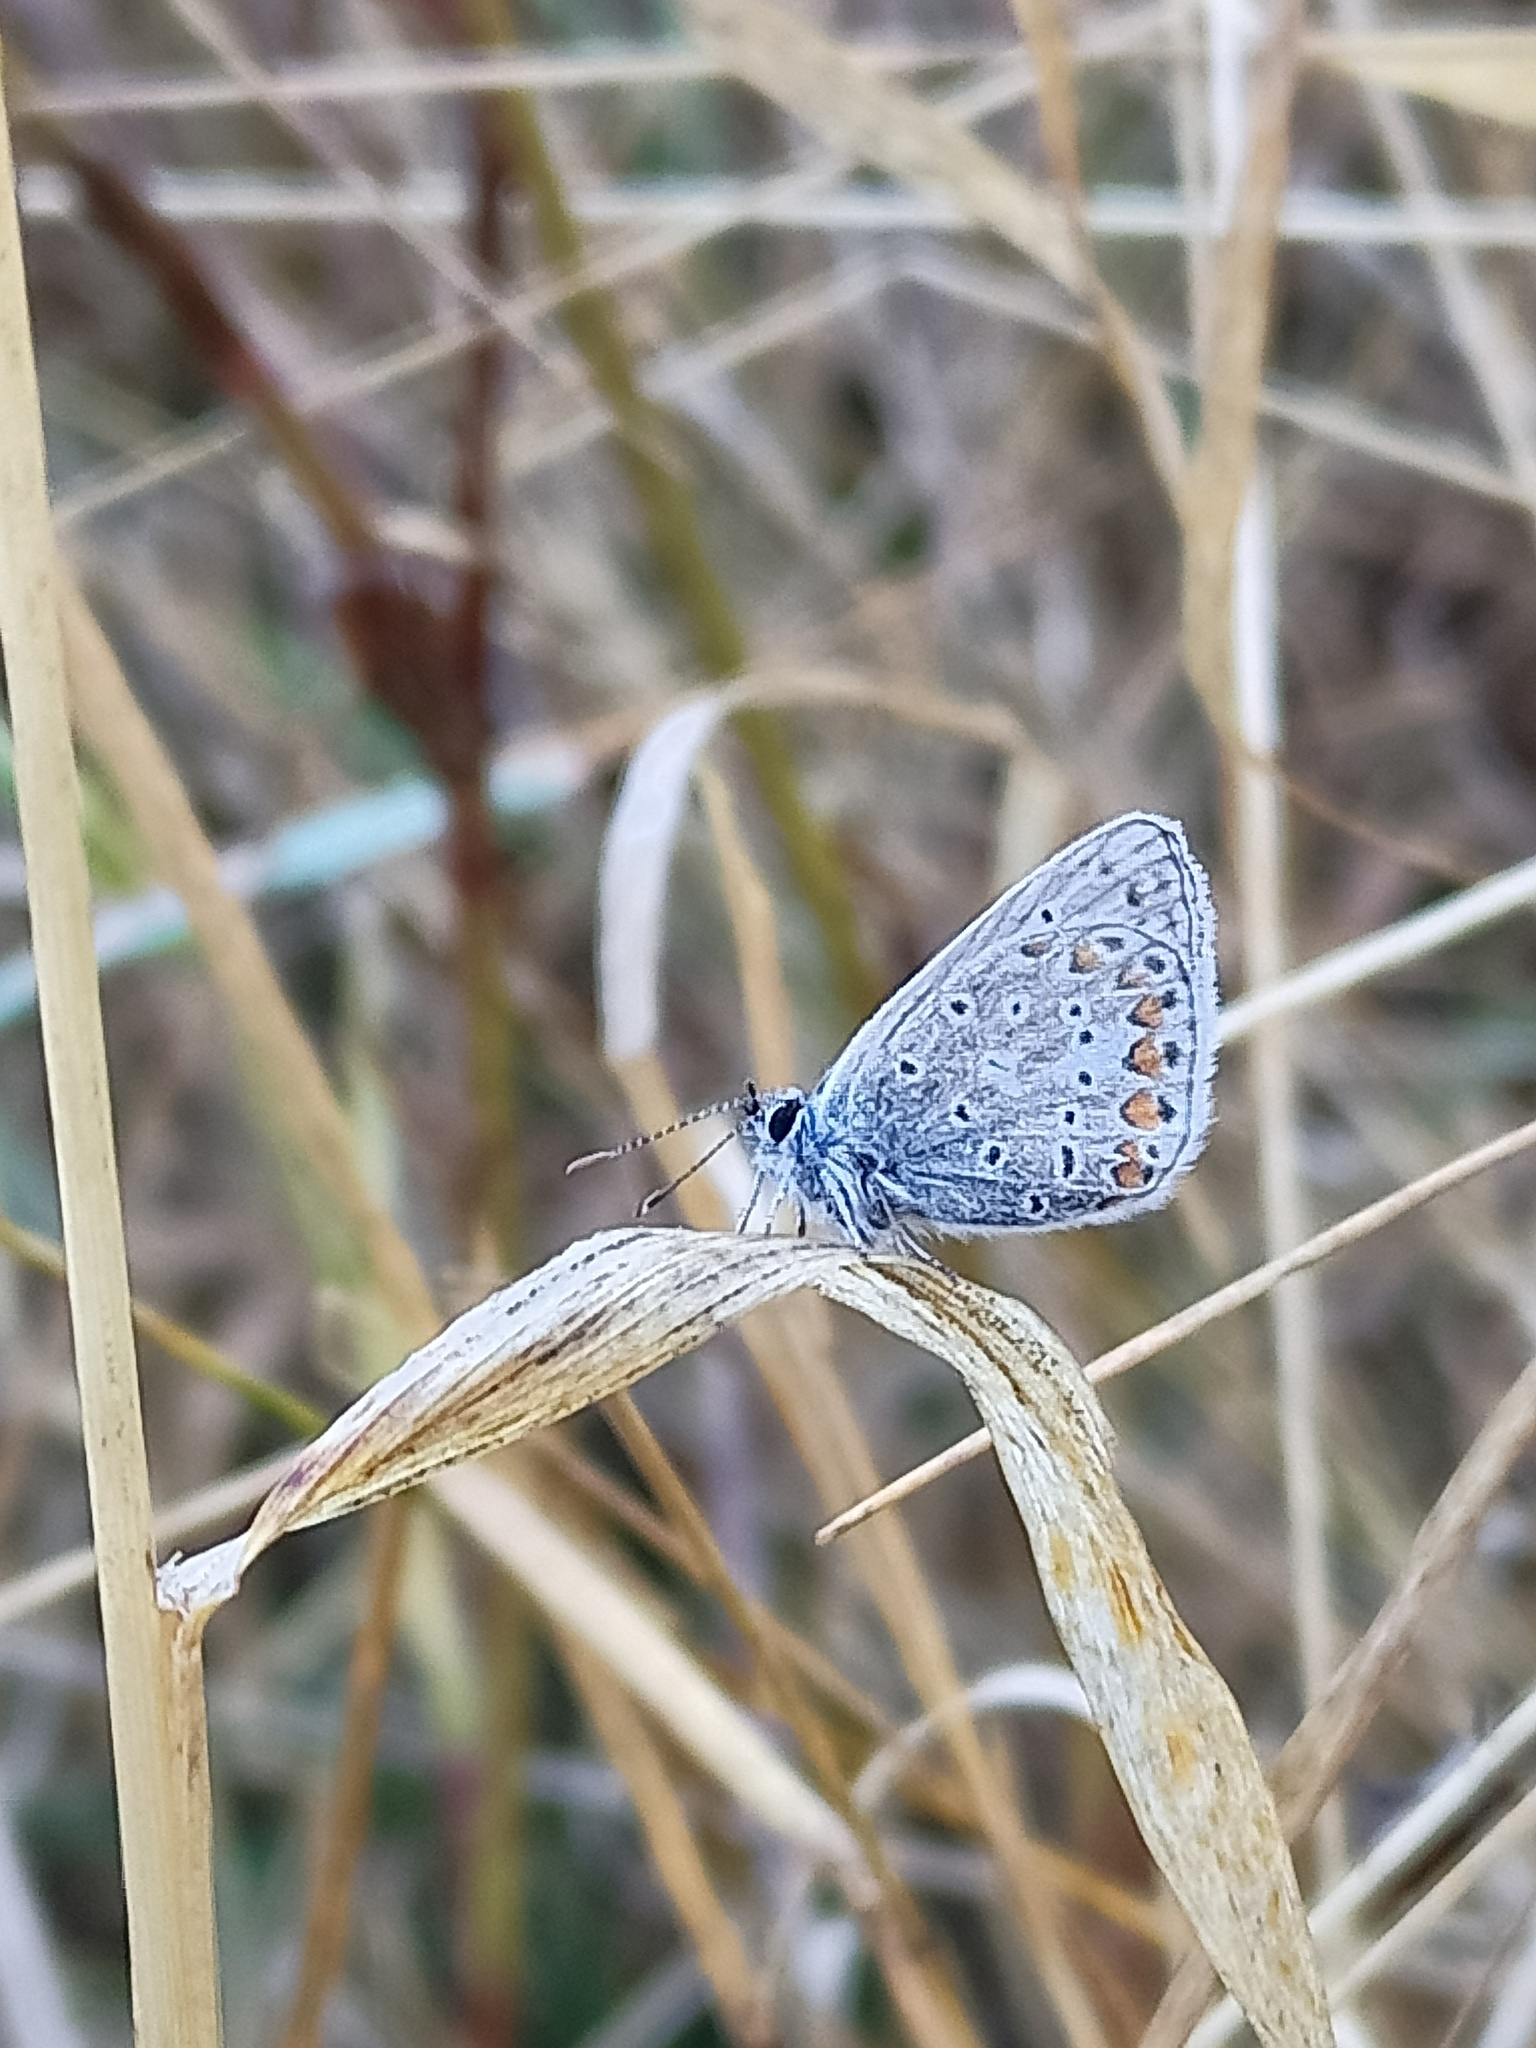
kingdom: Animalia
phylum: Arthropoda
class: Insecta
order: Lepidoptera
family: Lycaenidae
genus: Polyommatus
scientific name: Polyommatus icarus
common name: Common blue
